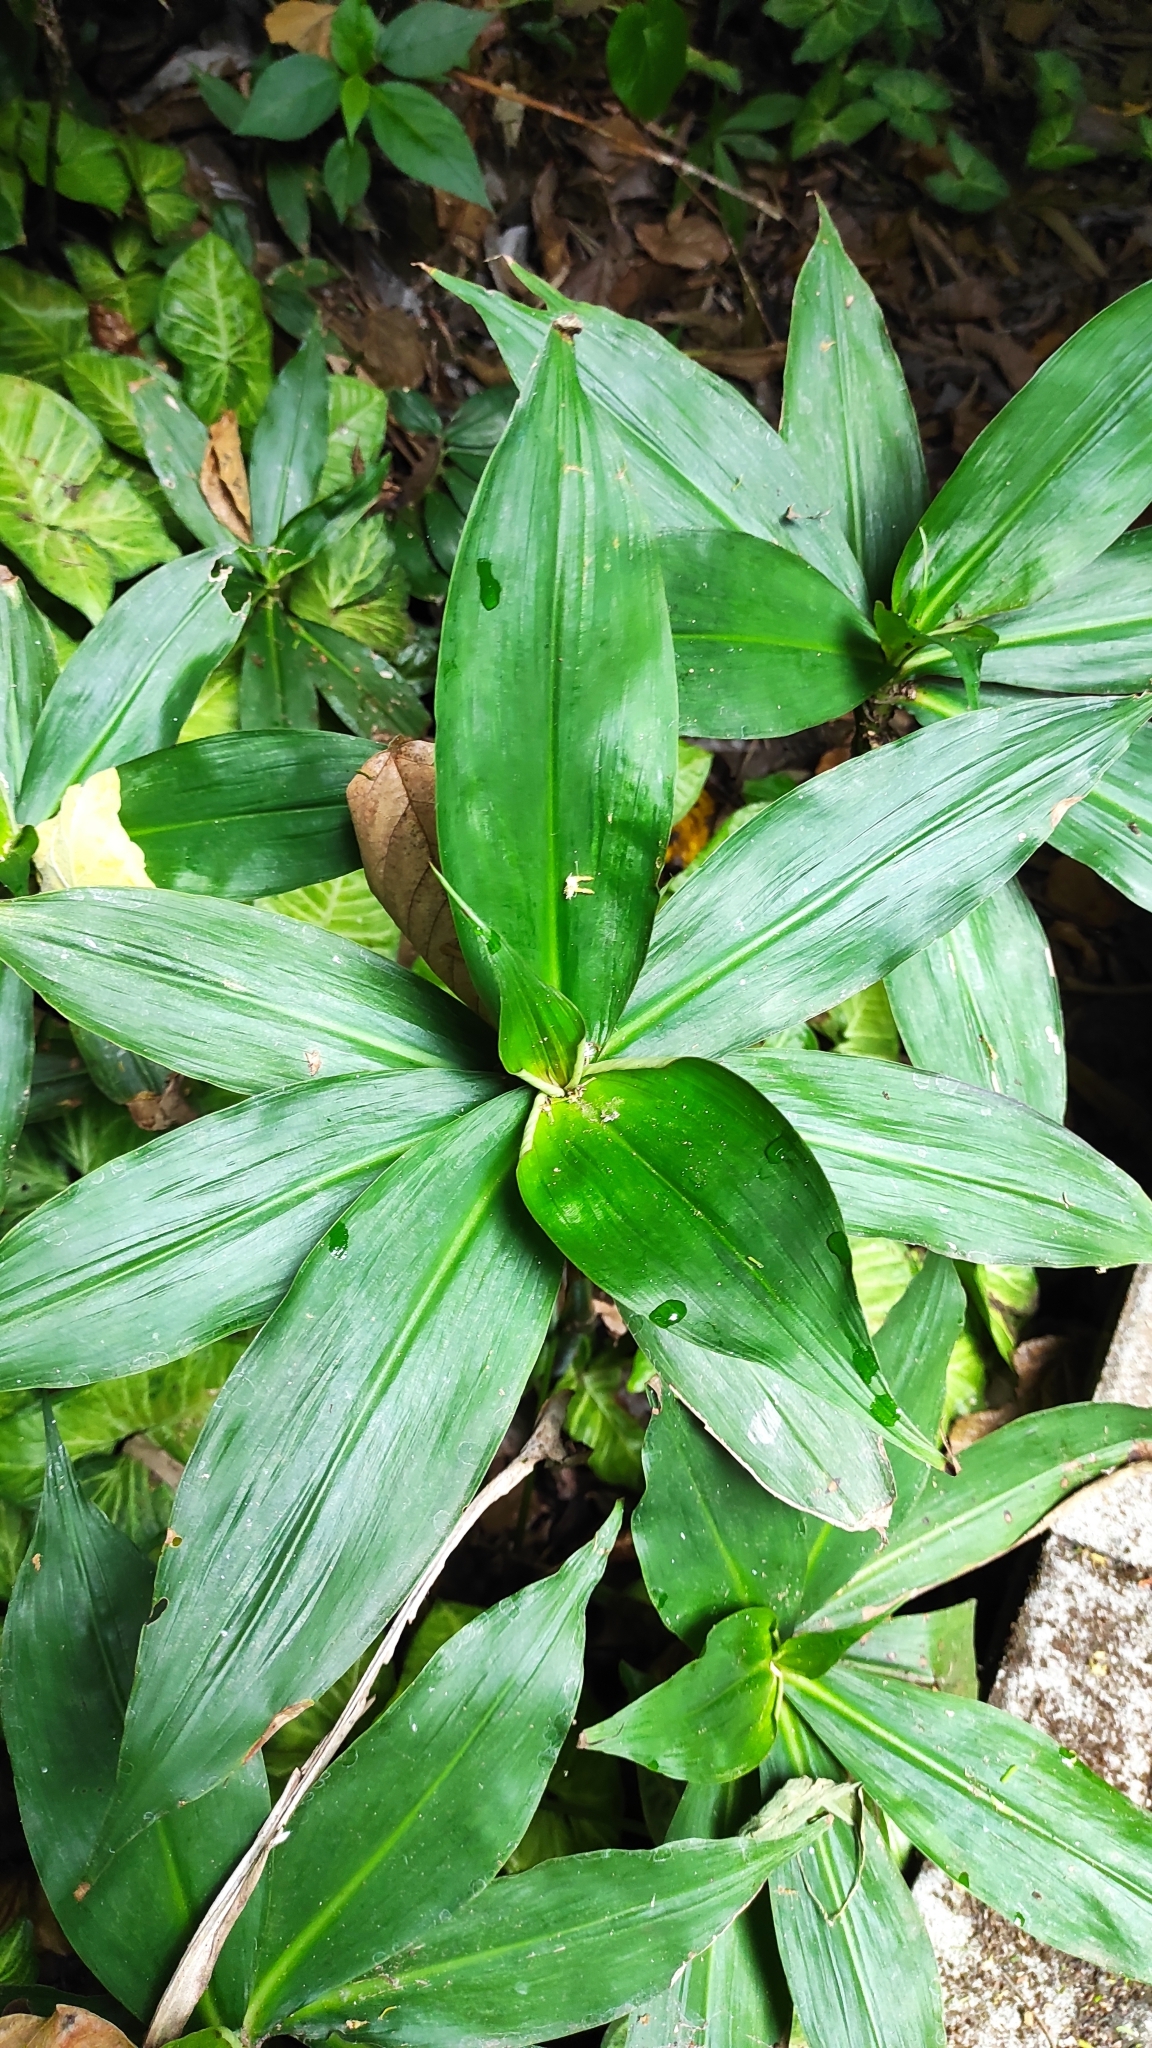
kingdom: Plantae
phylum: Tracheophyta
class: Liliopsida
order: Commelinales
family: Commelinaceae
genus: Tradescantia
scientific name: Tradescantia zanonia
